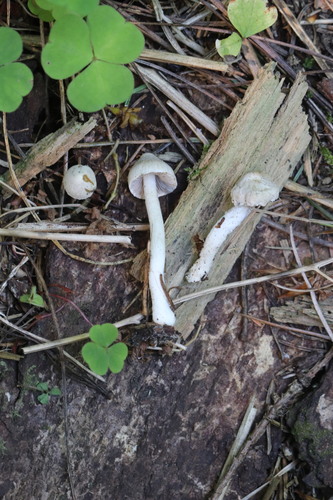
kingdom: Fungi
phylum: Basidiomycota
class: Agaricomycetes
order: Agaricales
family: Inocybaceae
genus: Inocybe
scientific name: Inocybe geophylla
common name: White fibrecap
